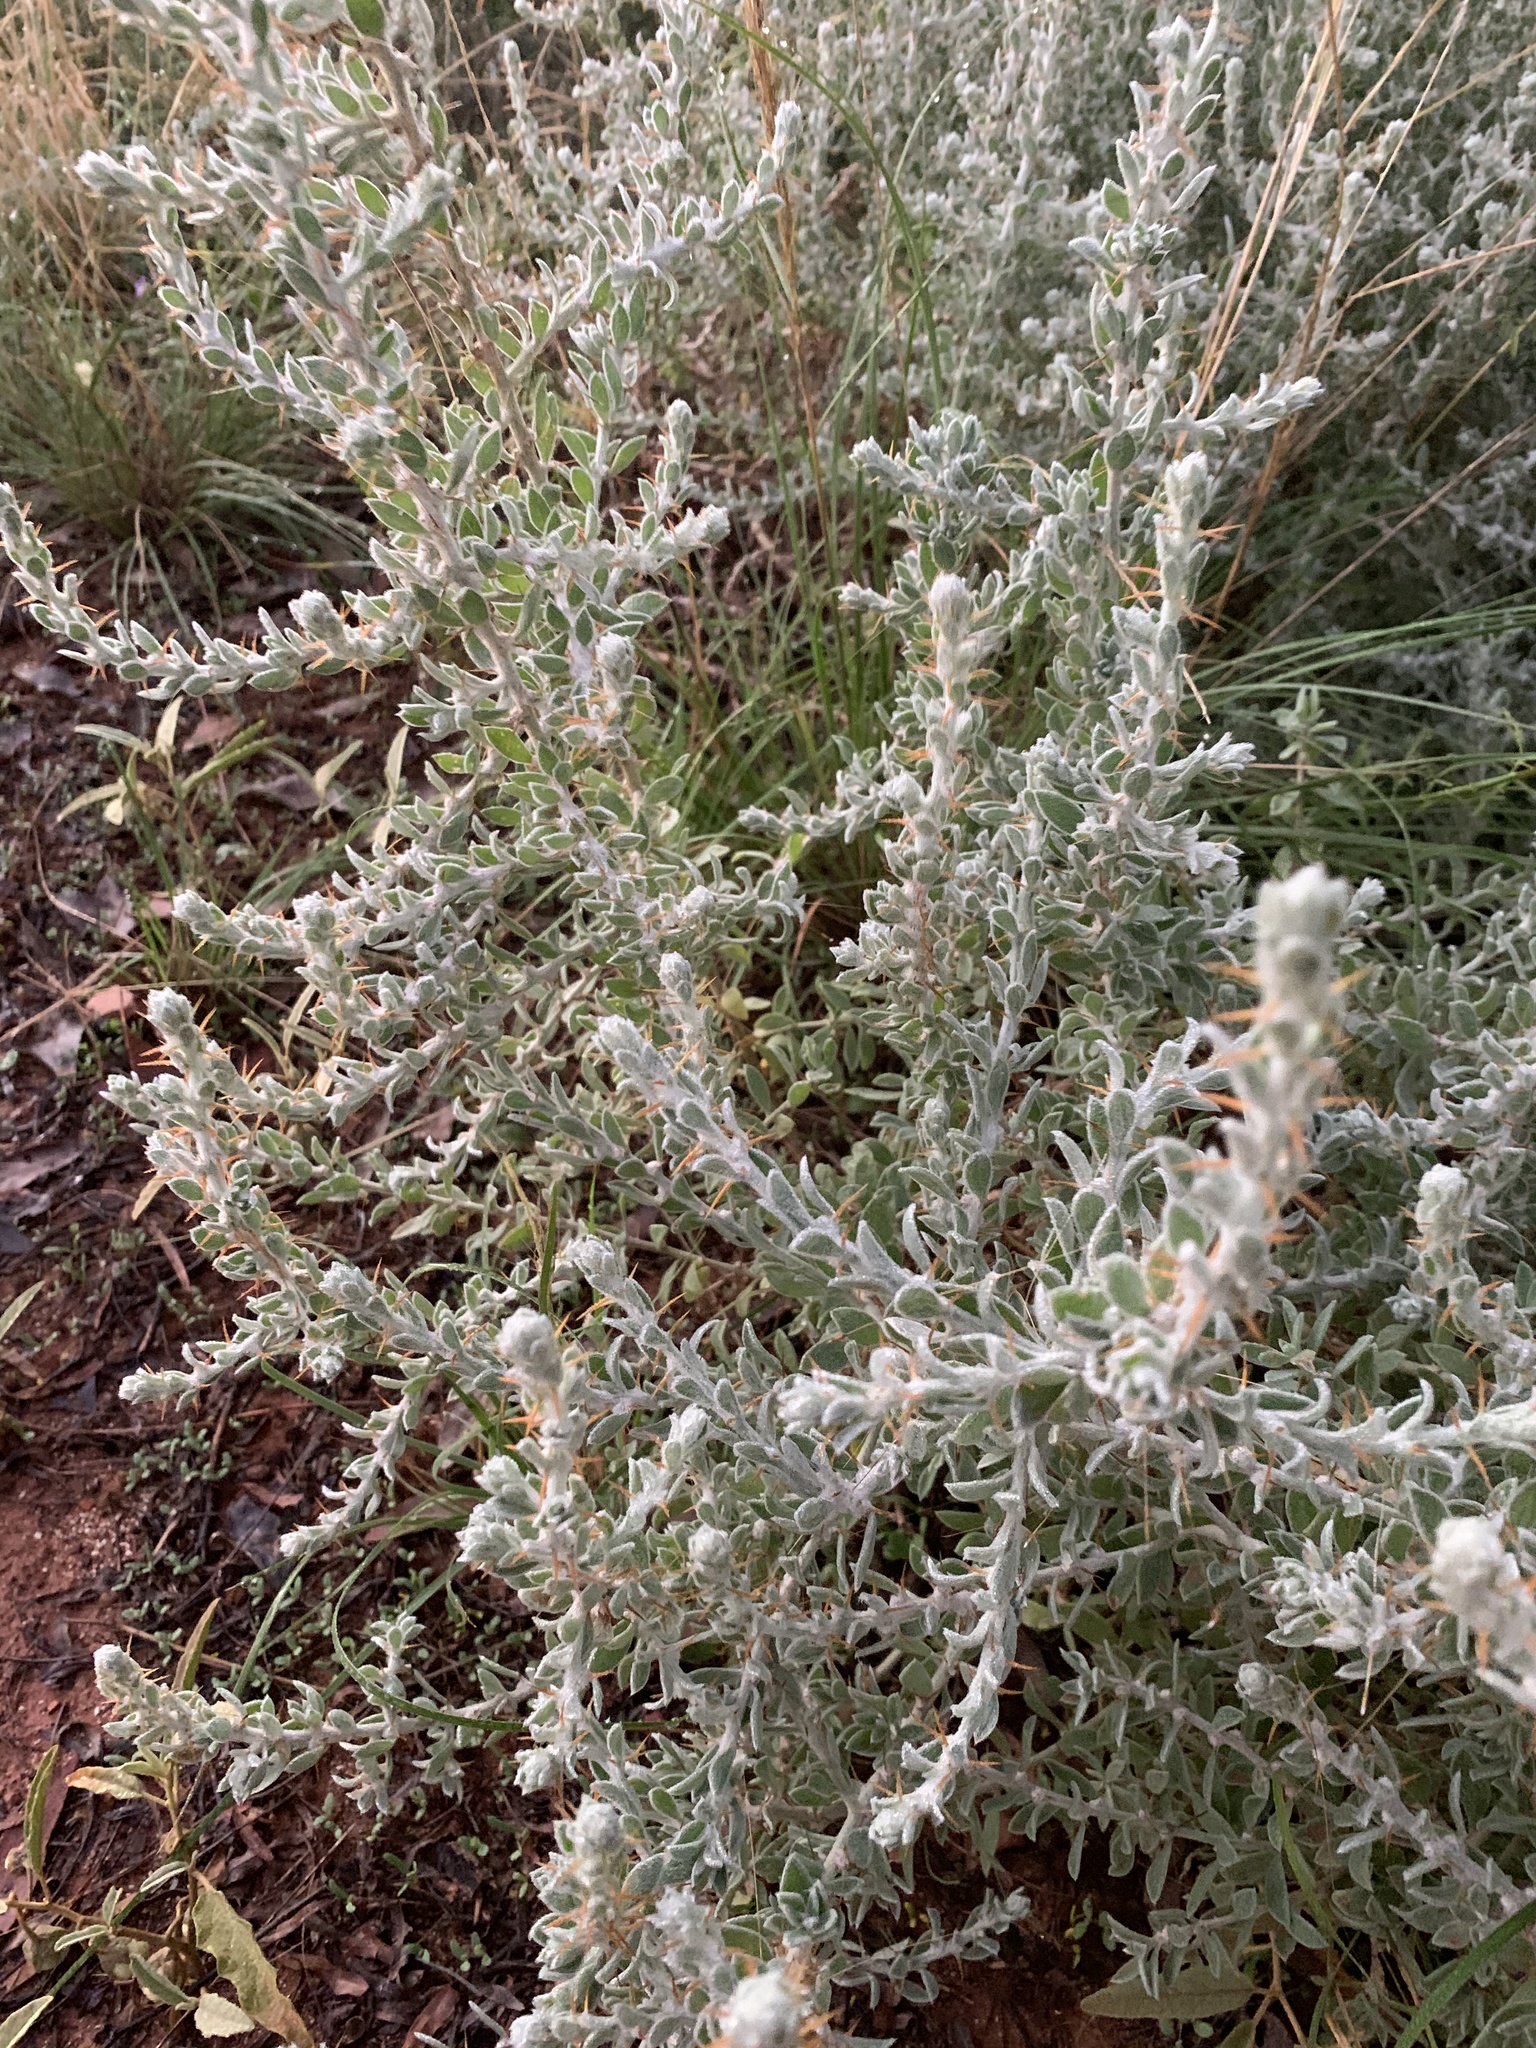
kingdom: Plantae
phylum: Tracheophyta
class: Magnoliopsida
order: Caryophyllales
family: Amaranthaceae
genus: Sclerolaena
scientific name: Sclerolaena birchii
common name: Galvanized bur
